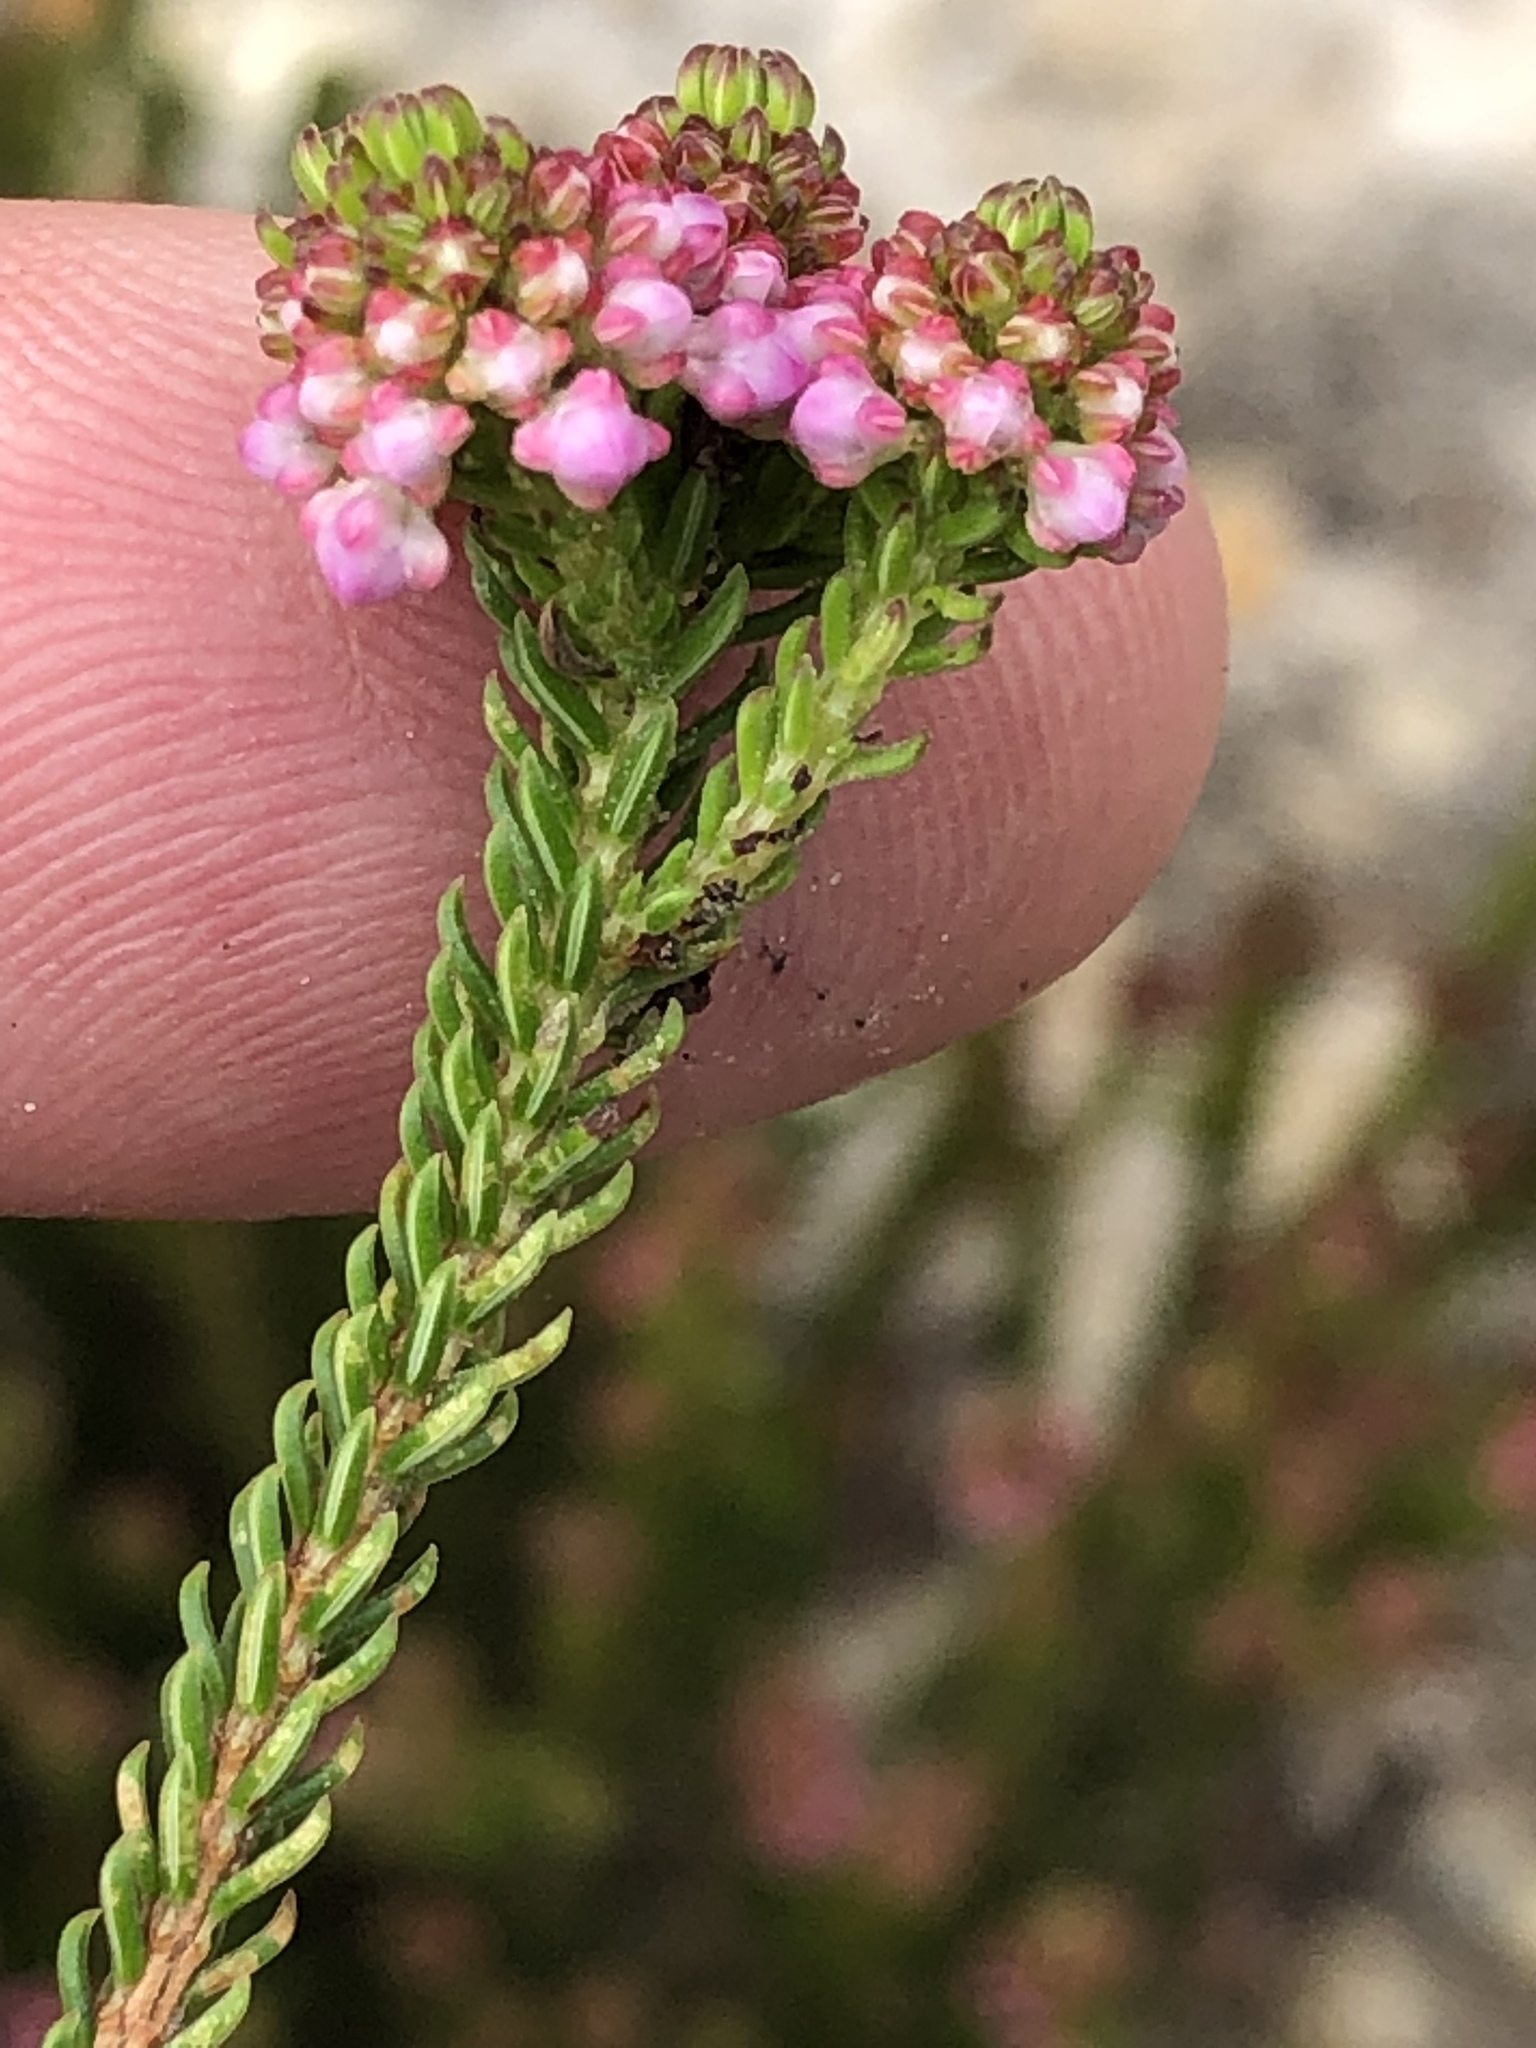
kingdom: Plantae
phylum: Tracheophyta
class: Magnoliopsida
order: Ericales
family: Ericaceae
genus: Erica
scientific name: Erica seriphiifolia
